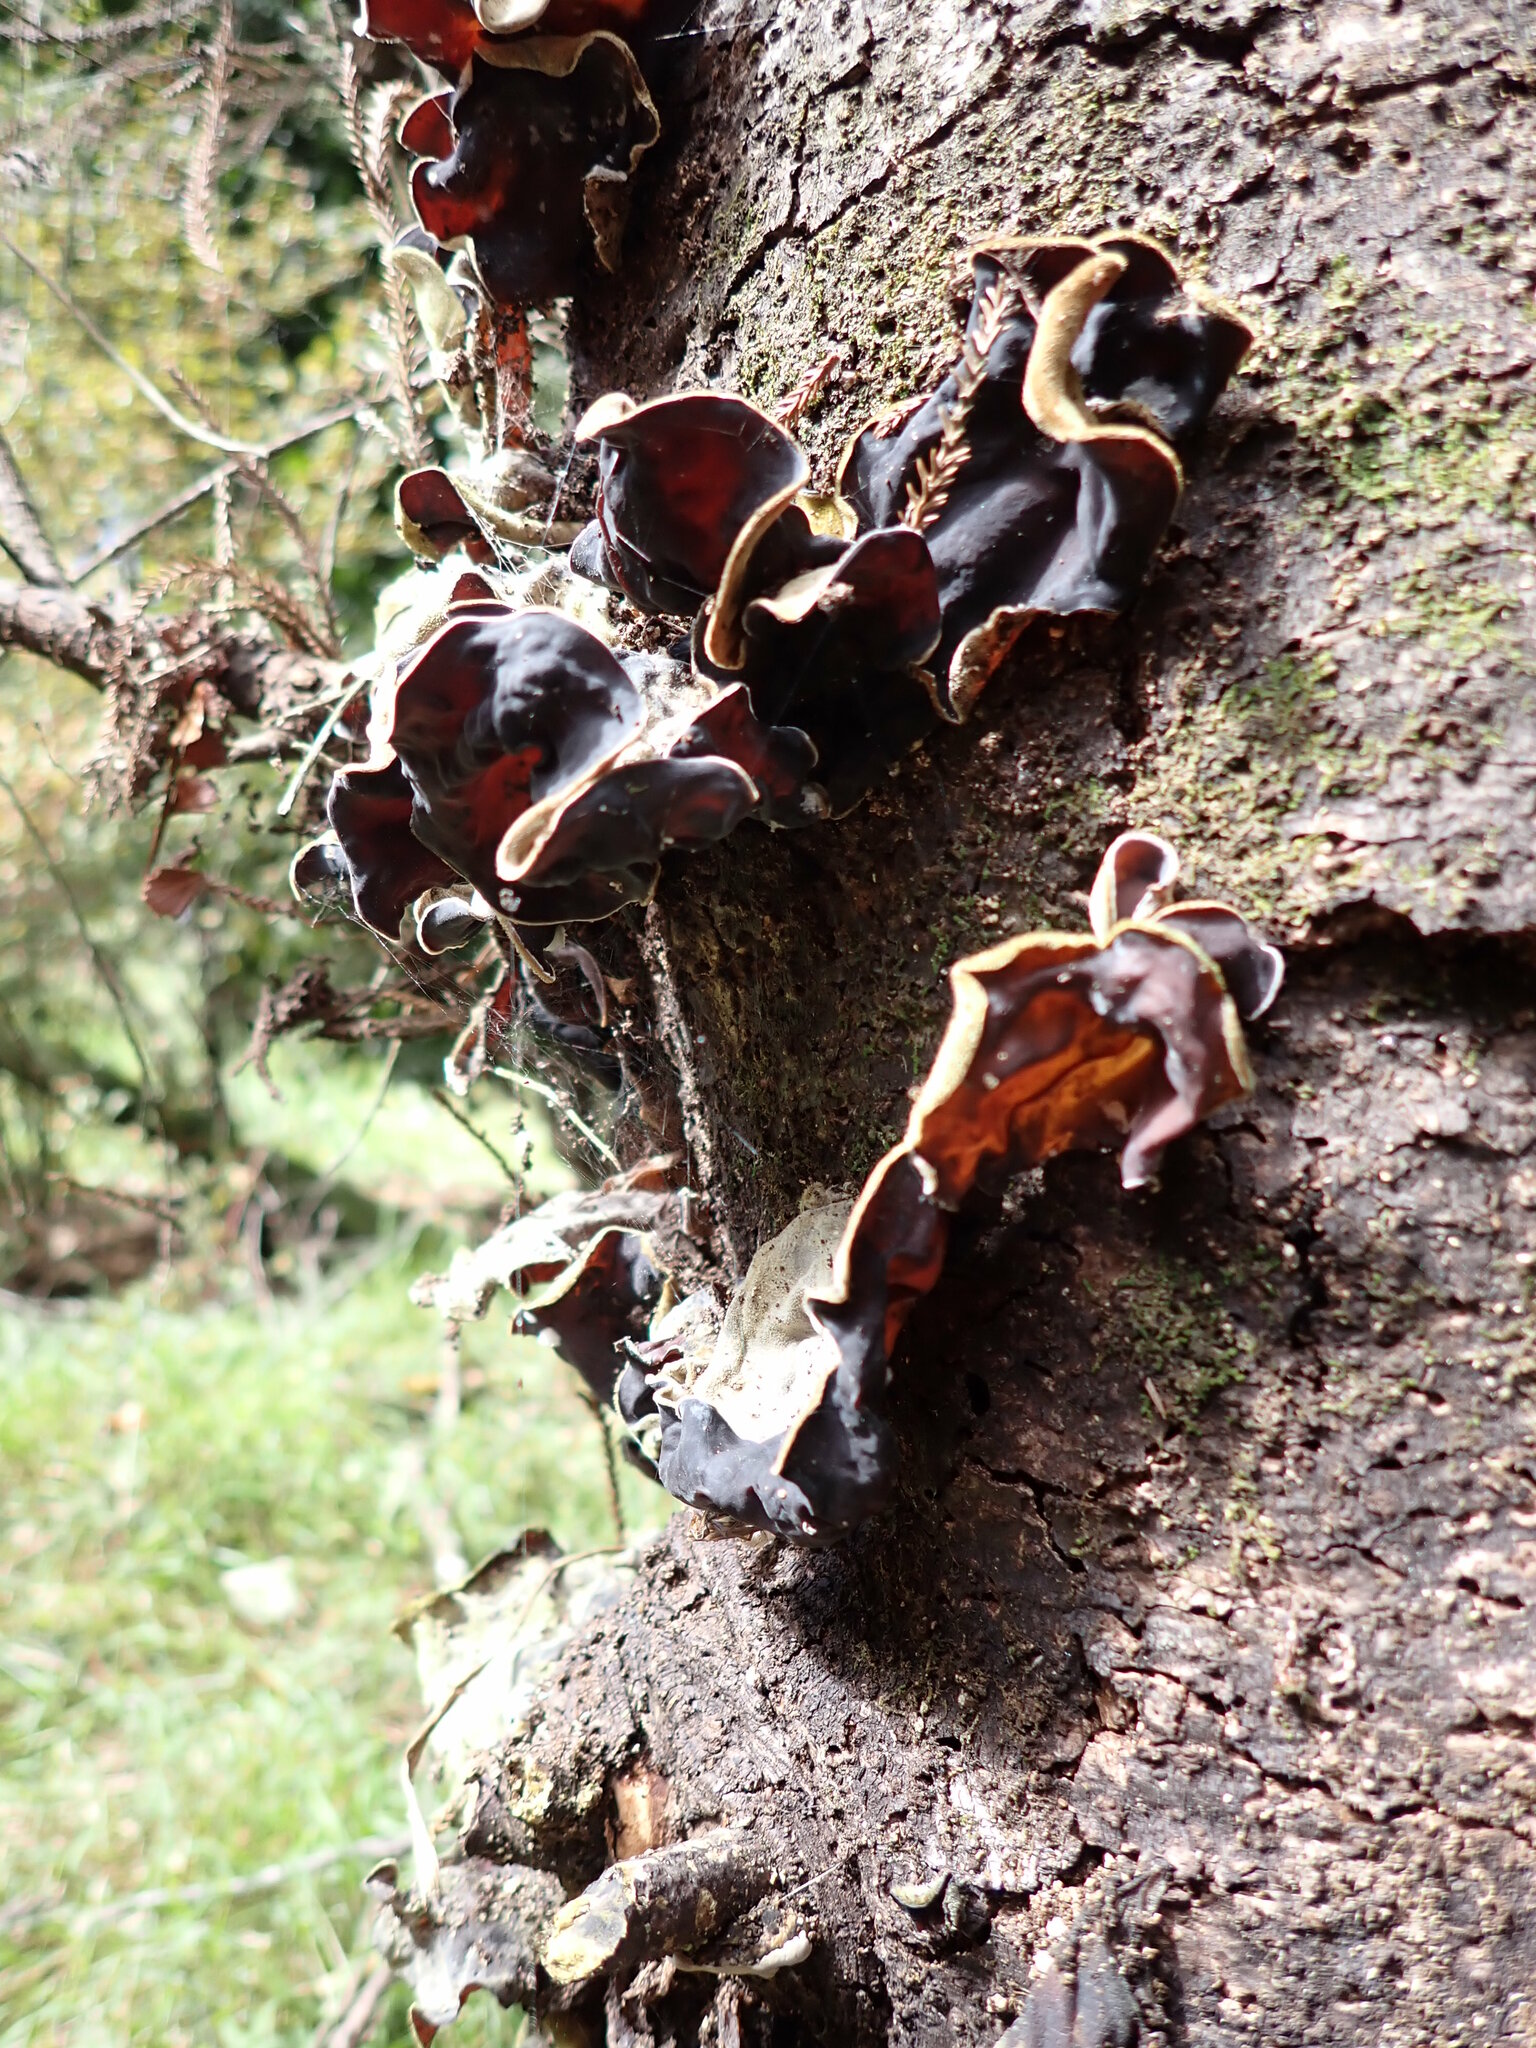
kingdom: Fungi
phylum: Basidiomycota
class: Agaricomycetes
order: Auriculariales
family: Auriculariaceae
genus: Auricularia
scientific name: Auricularia cornea
